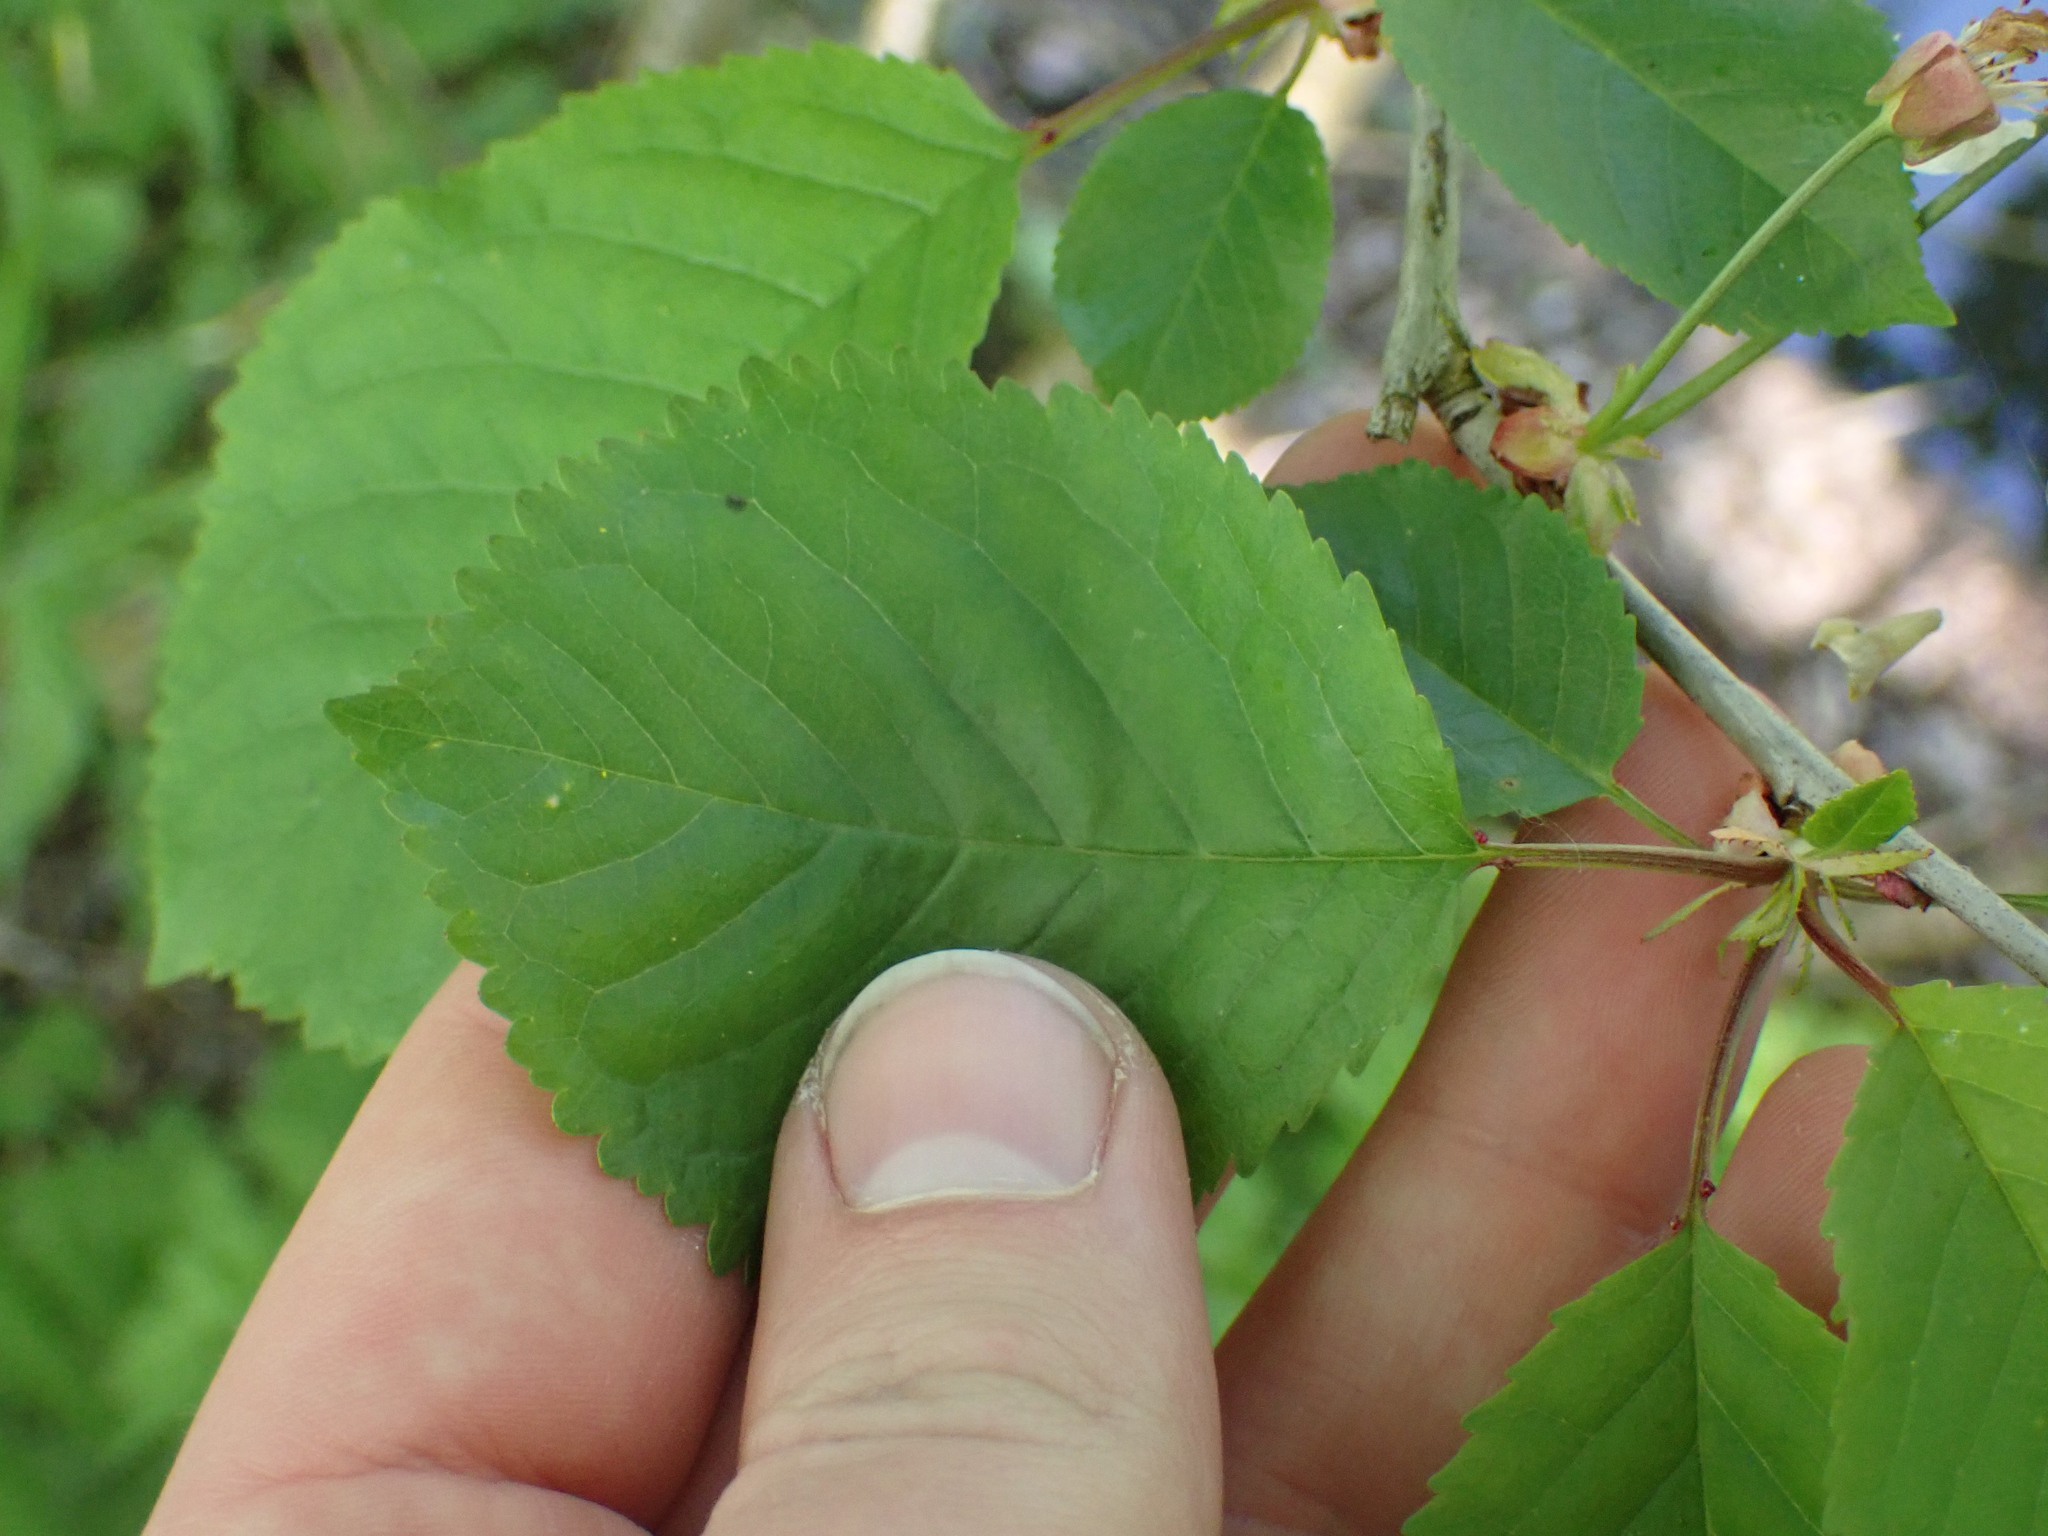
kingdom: Plantae
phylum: Tracheophyta
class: Magnoliopsida
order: Rosales
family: Rosaceae
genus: Prunus
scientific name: Prunus avium
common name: Sweet cherry
